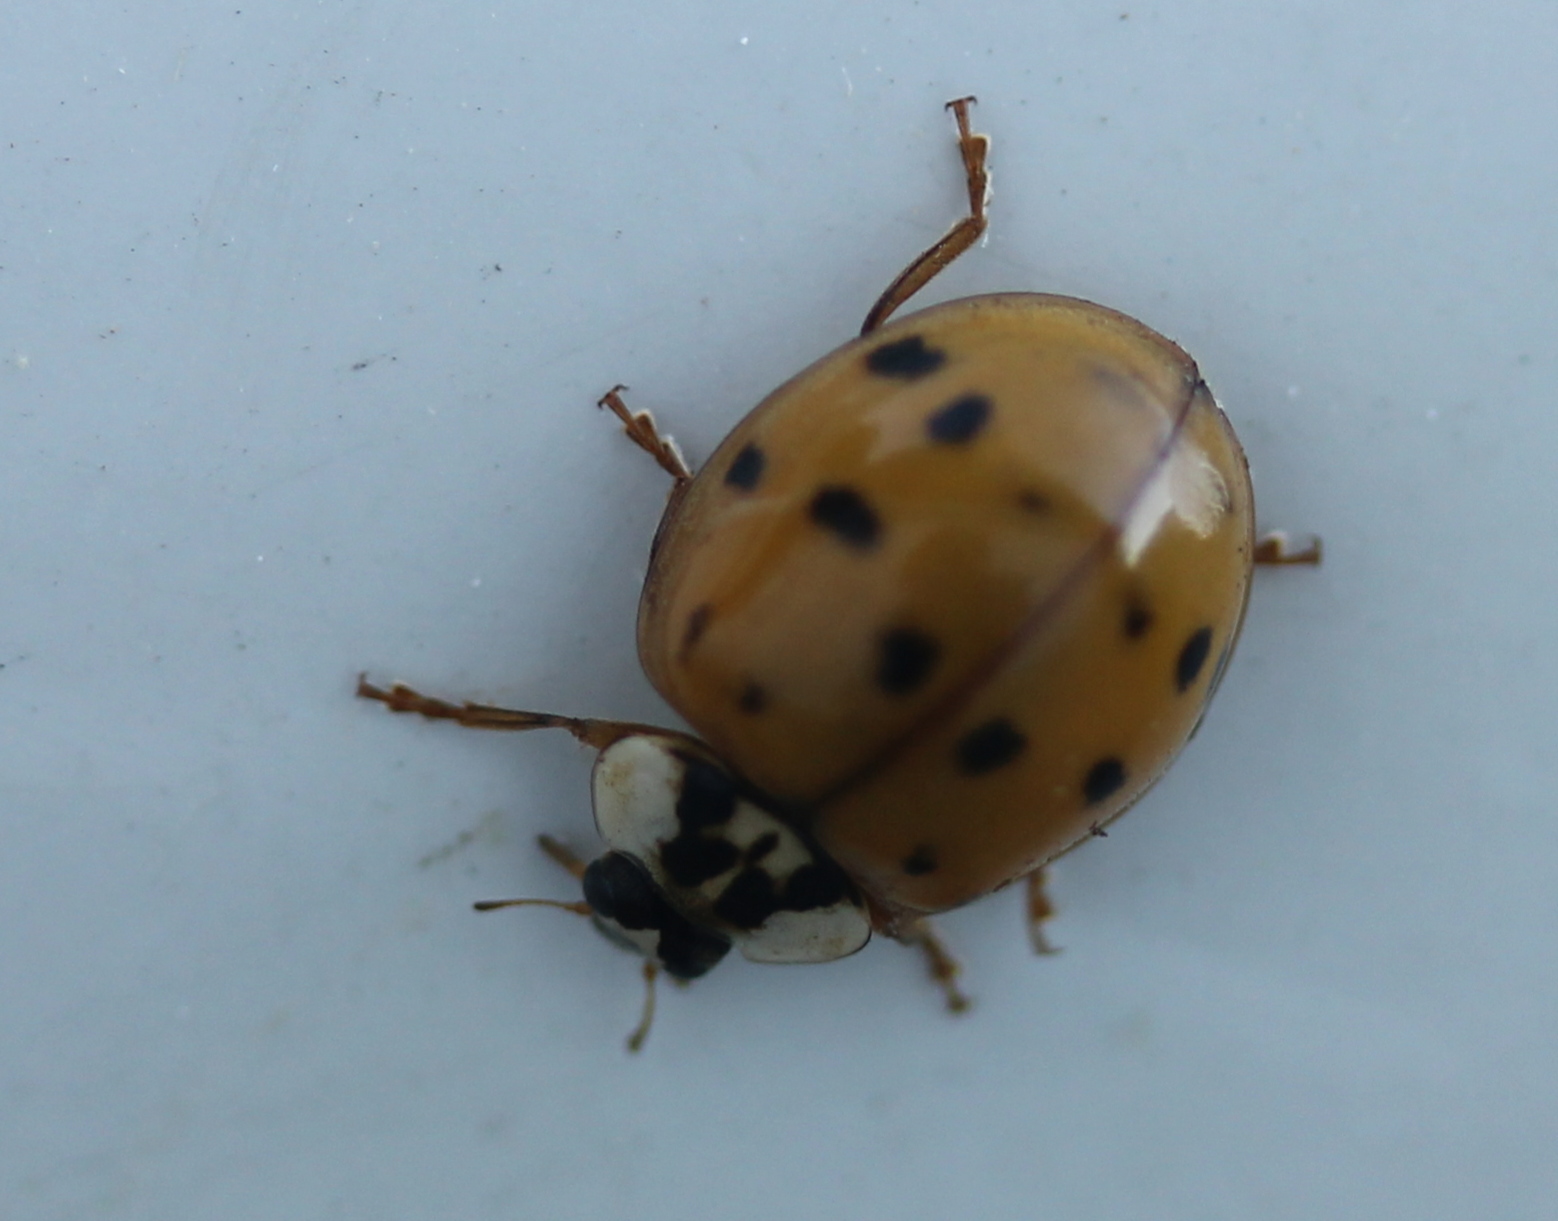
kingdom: Animalia
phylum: Arthropoda
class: Insecta
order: Coleoptera
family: Coccinellidae
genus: Harmonia
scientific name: Harmonia axyridis
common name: Harlequin ladybird
